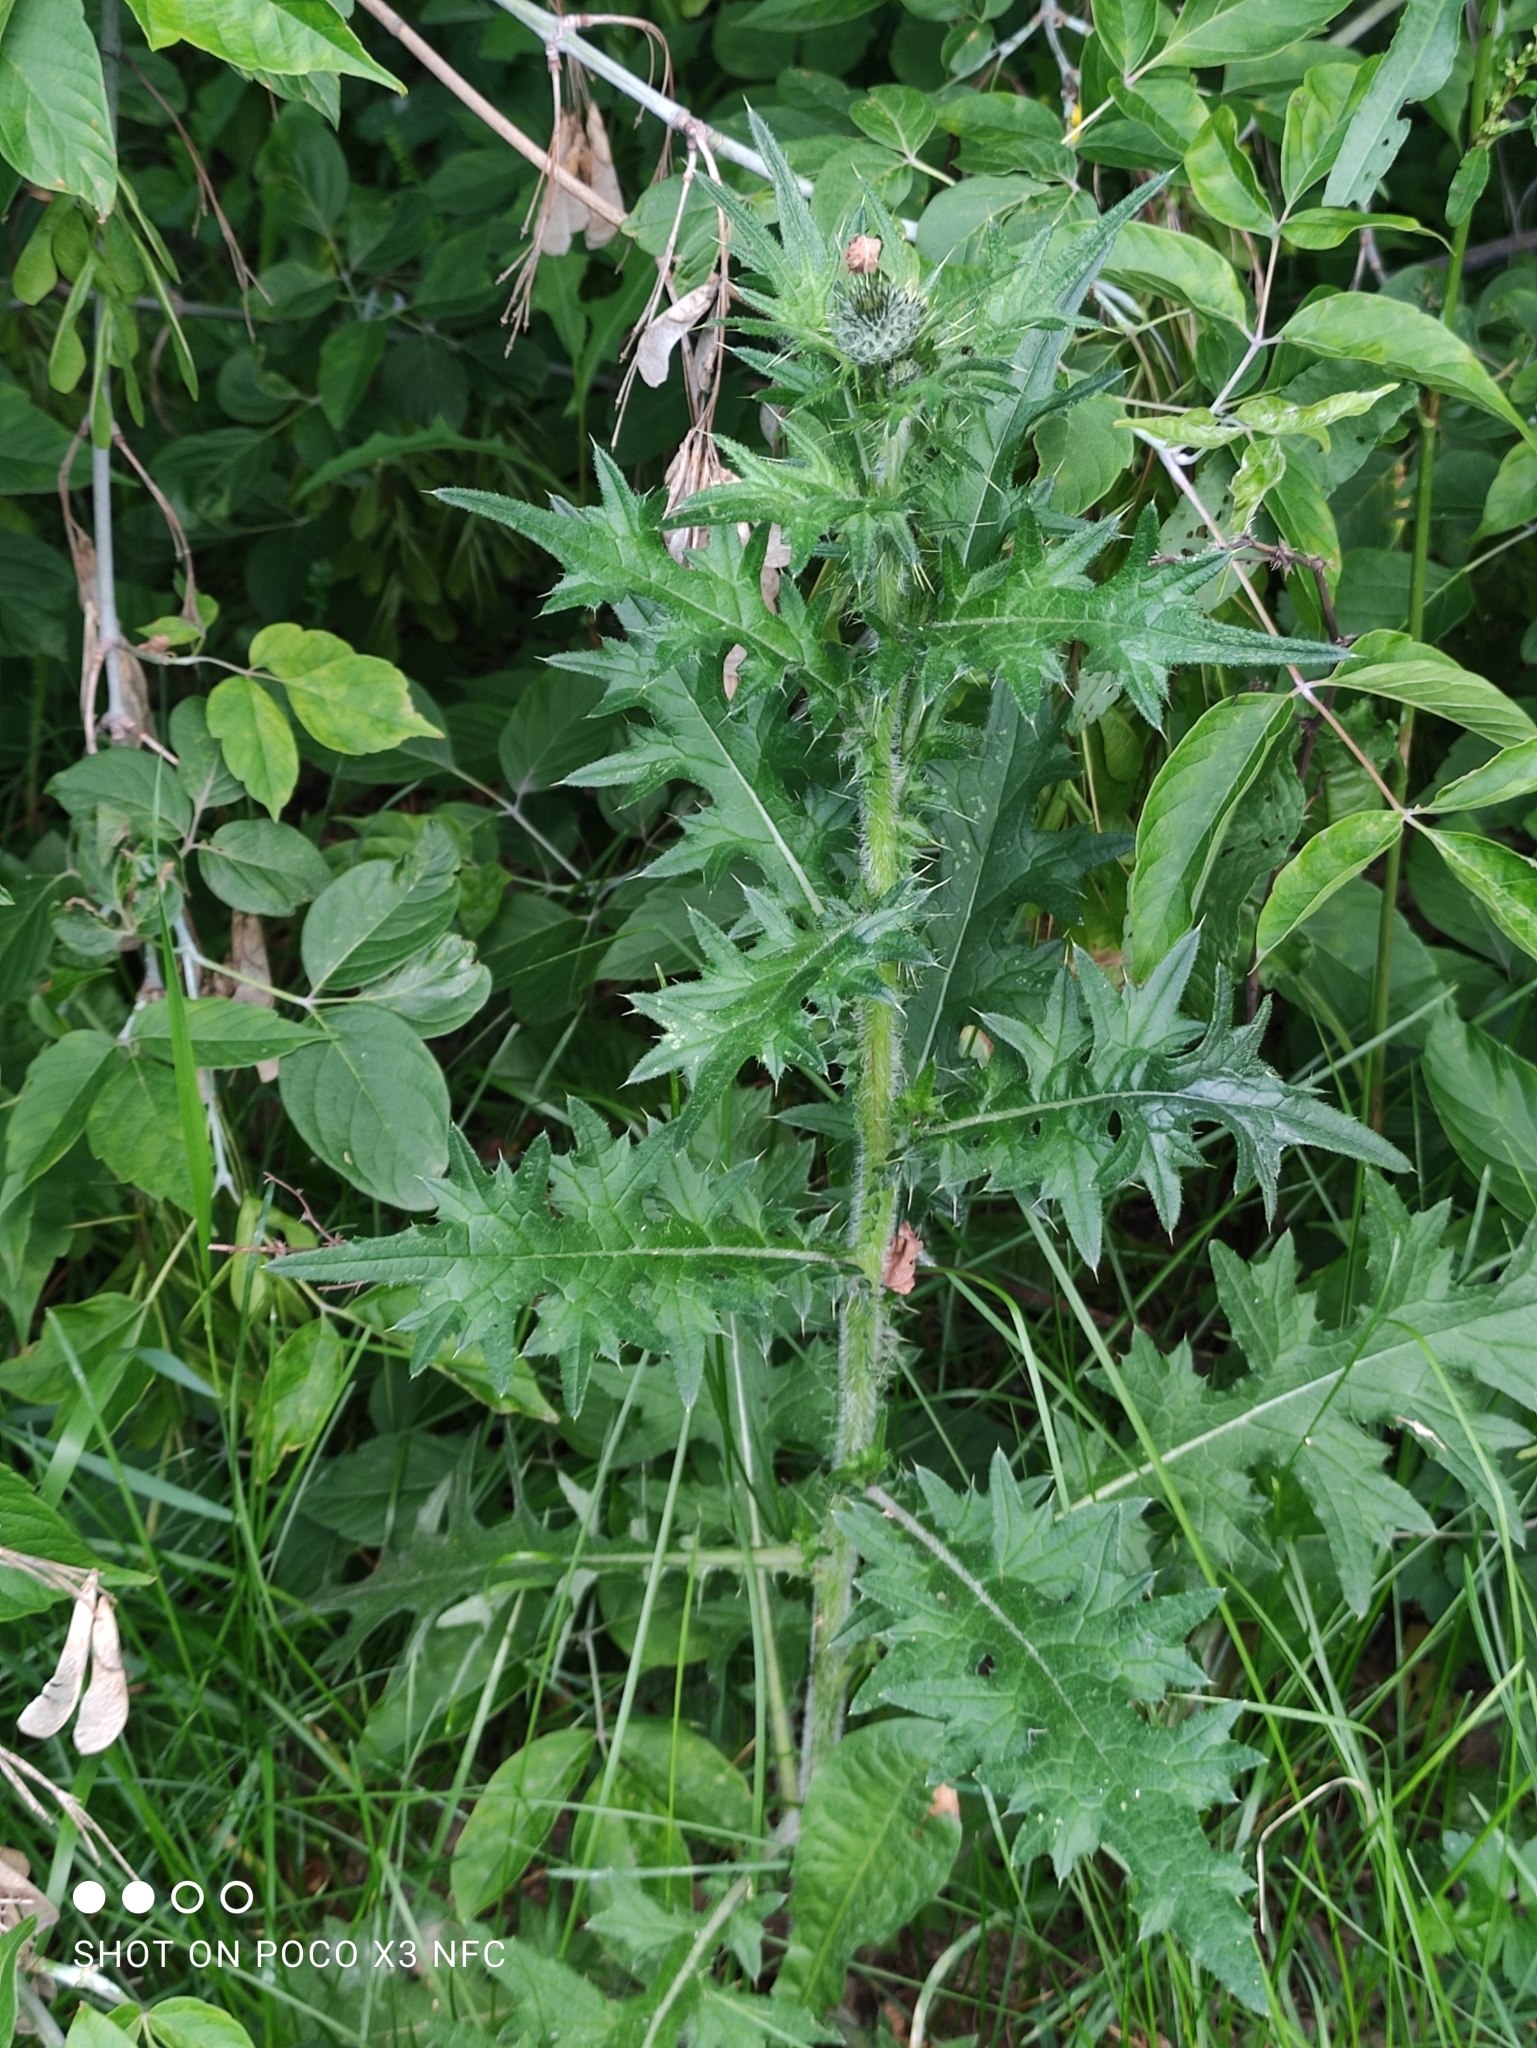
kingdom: Plantae
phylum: Tracheophyta
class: Magnoliopsida
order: Asterales
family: Asteraceae
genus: Cirsium
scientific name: Cirsium vulgare
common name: Bull thistle
